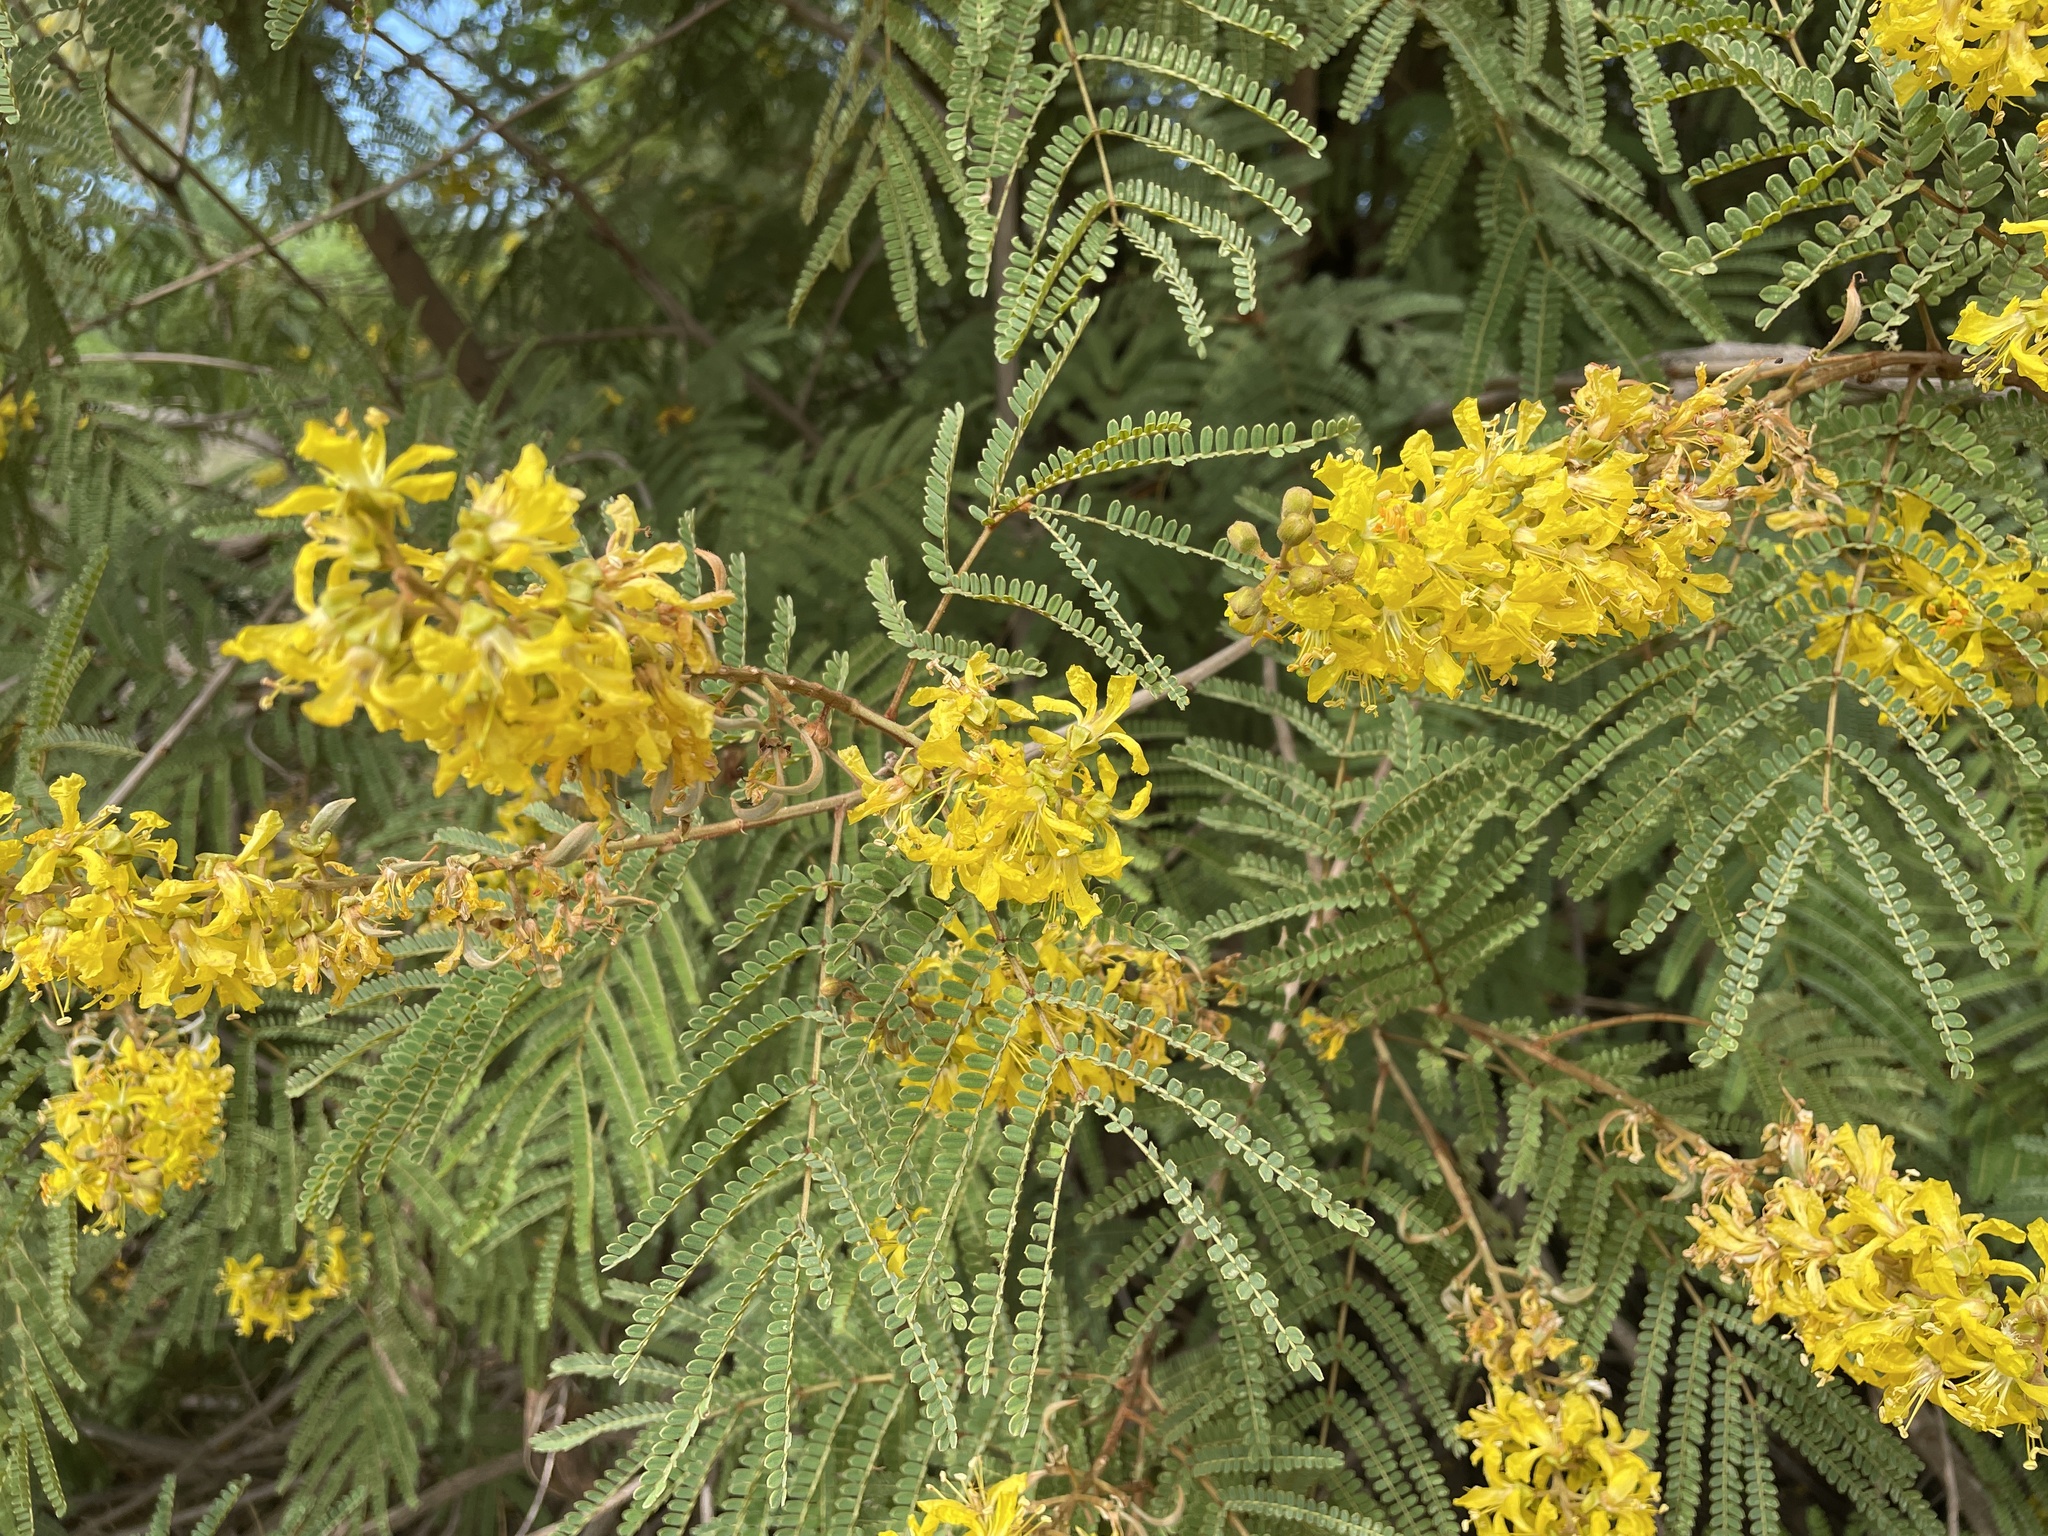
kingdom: Plantae
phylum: Tracheophyta
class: Magnoliopsida
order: Fabales
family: Fabaceae
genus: Peltophorum
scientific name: Peltophorum africanum
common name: African black wattle
